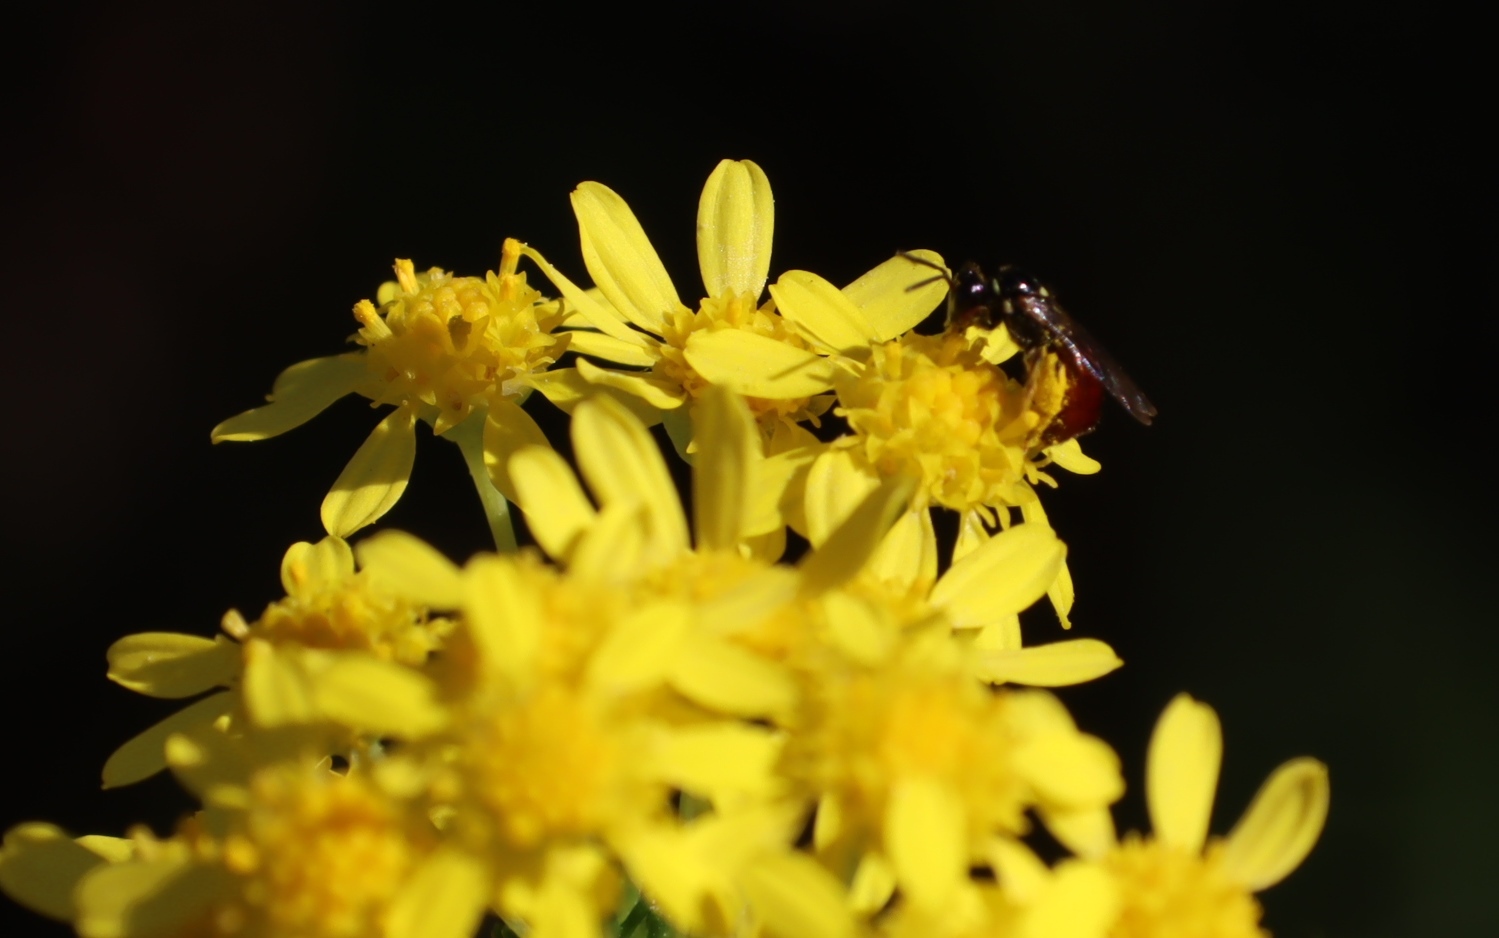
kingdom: Plantae
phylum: Tracheophyta
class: Magnoliopsida
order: Asterales
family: Asteraceae
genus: Euryops
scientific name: Euryops virgineus
